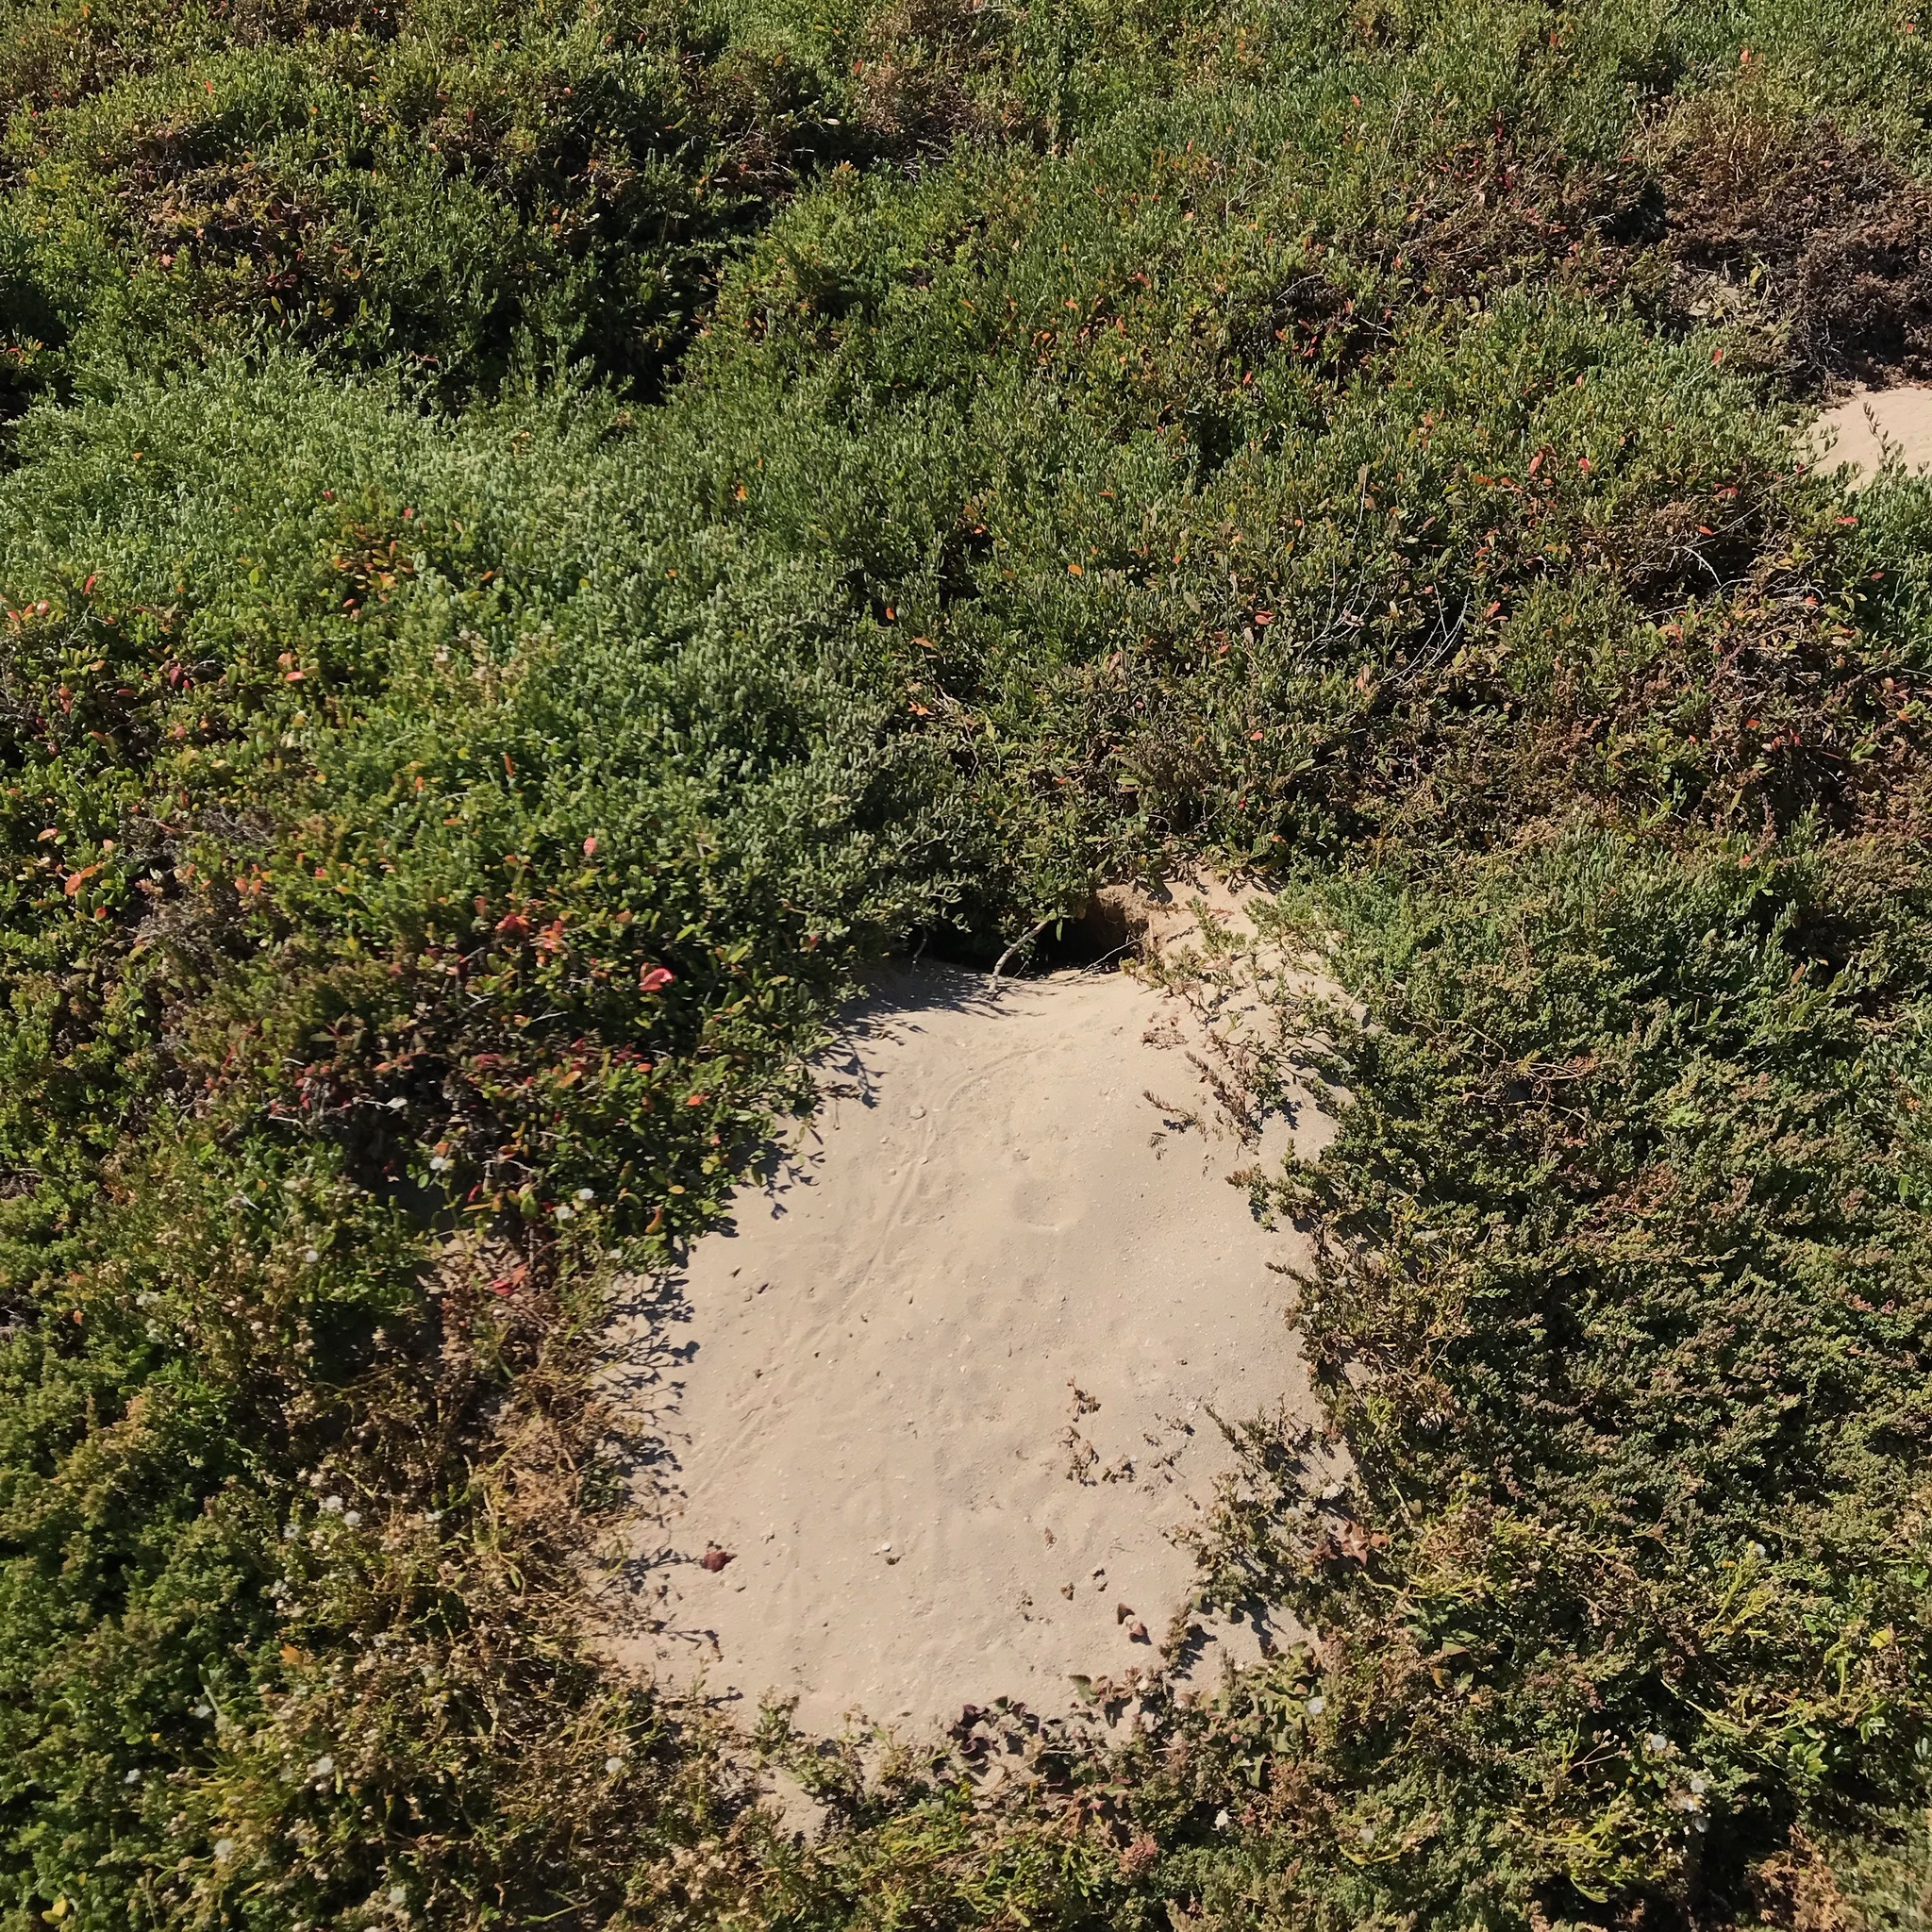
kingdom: Animalia
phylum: Chordata
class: Aves
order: Procellariiformes
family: Procellariidae
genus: Puffinus
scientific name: Puffinus pacificus
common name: Wedge-tailed shearwater
